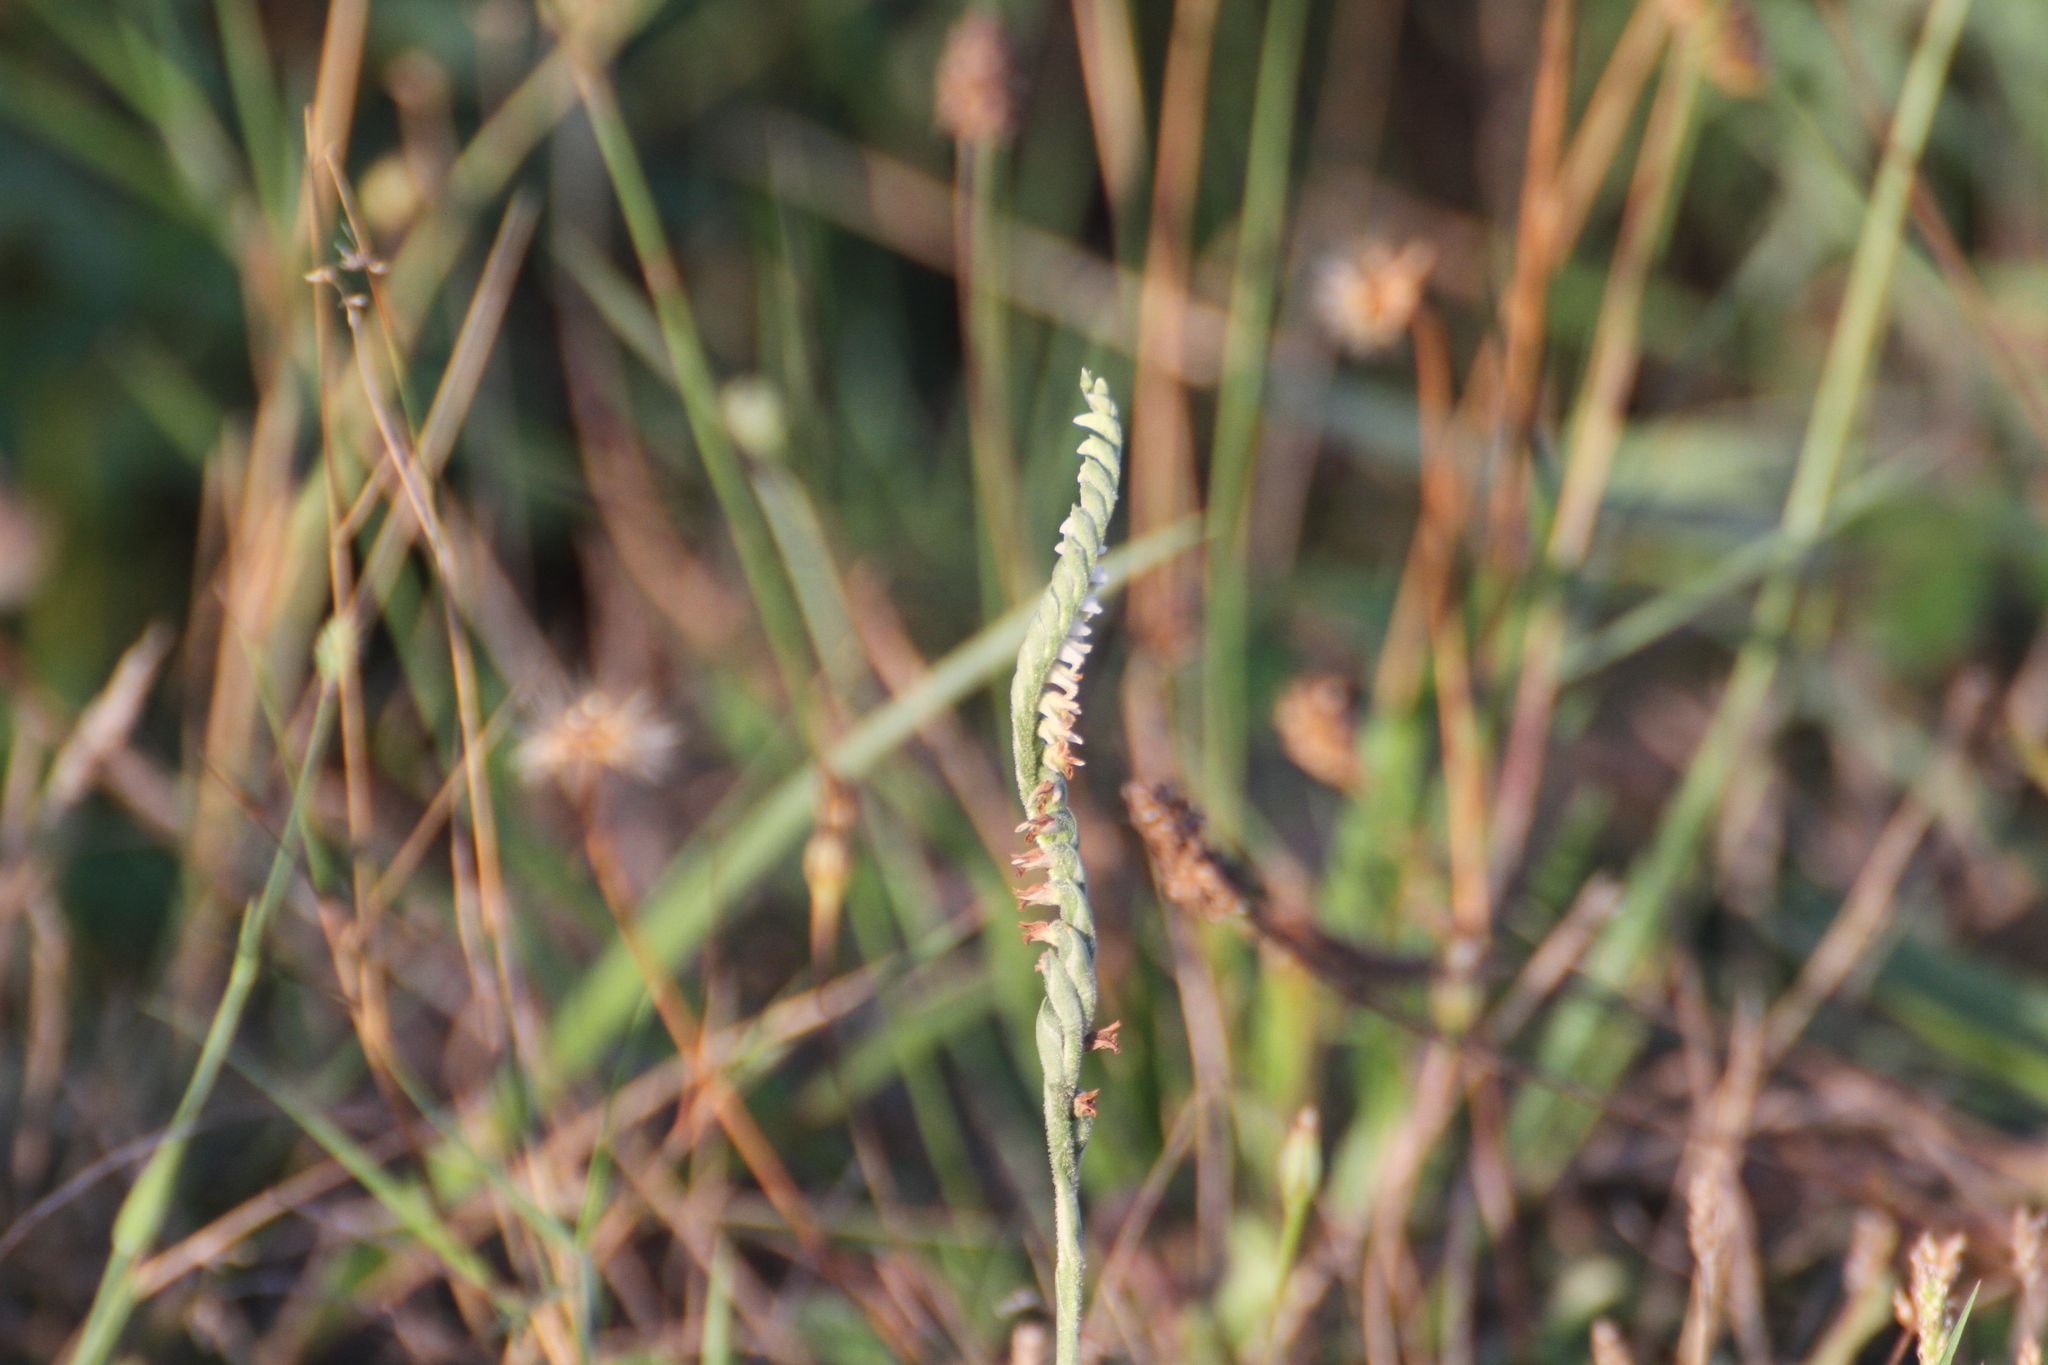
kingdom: Plantae
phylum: Tracheophyta
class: Liliopsida
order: Asparagales
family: Orchidaceae
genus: Spiranthes
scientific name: Spiranthes spiralis
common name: Autumn lady's-tresses
